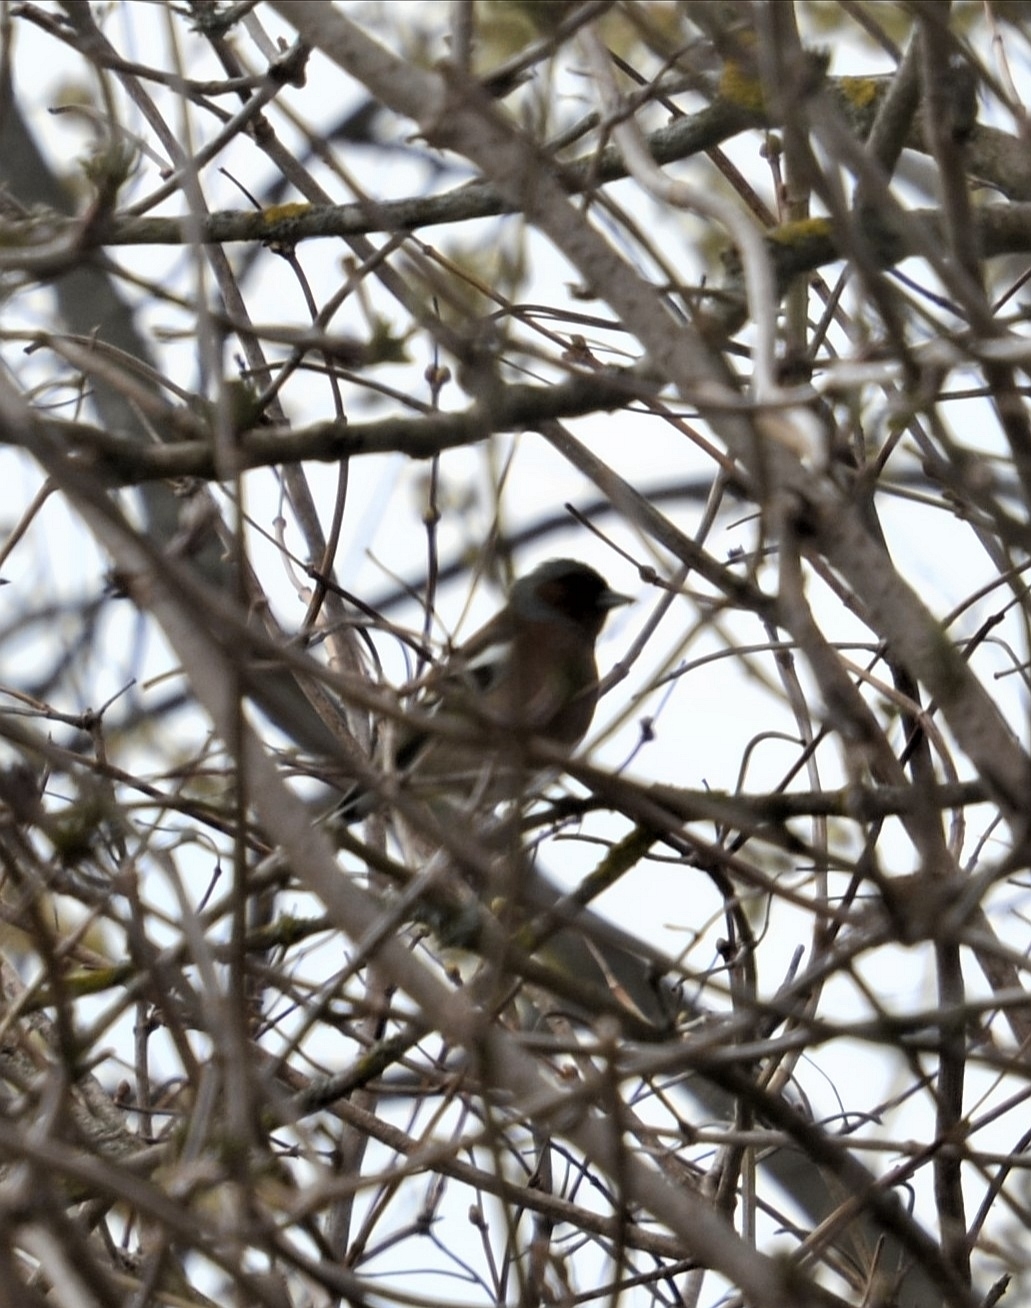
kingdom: Animalia
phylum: Chordata
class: Aves
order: Passeriformes
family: Fringillidae
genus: Fringilla
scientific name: Fringilla coelebs
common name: Common chaffinch
